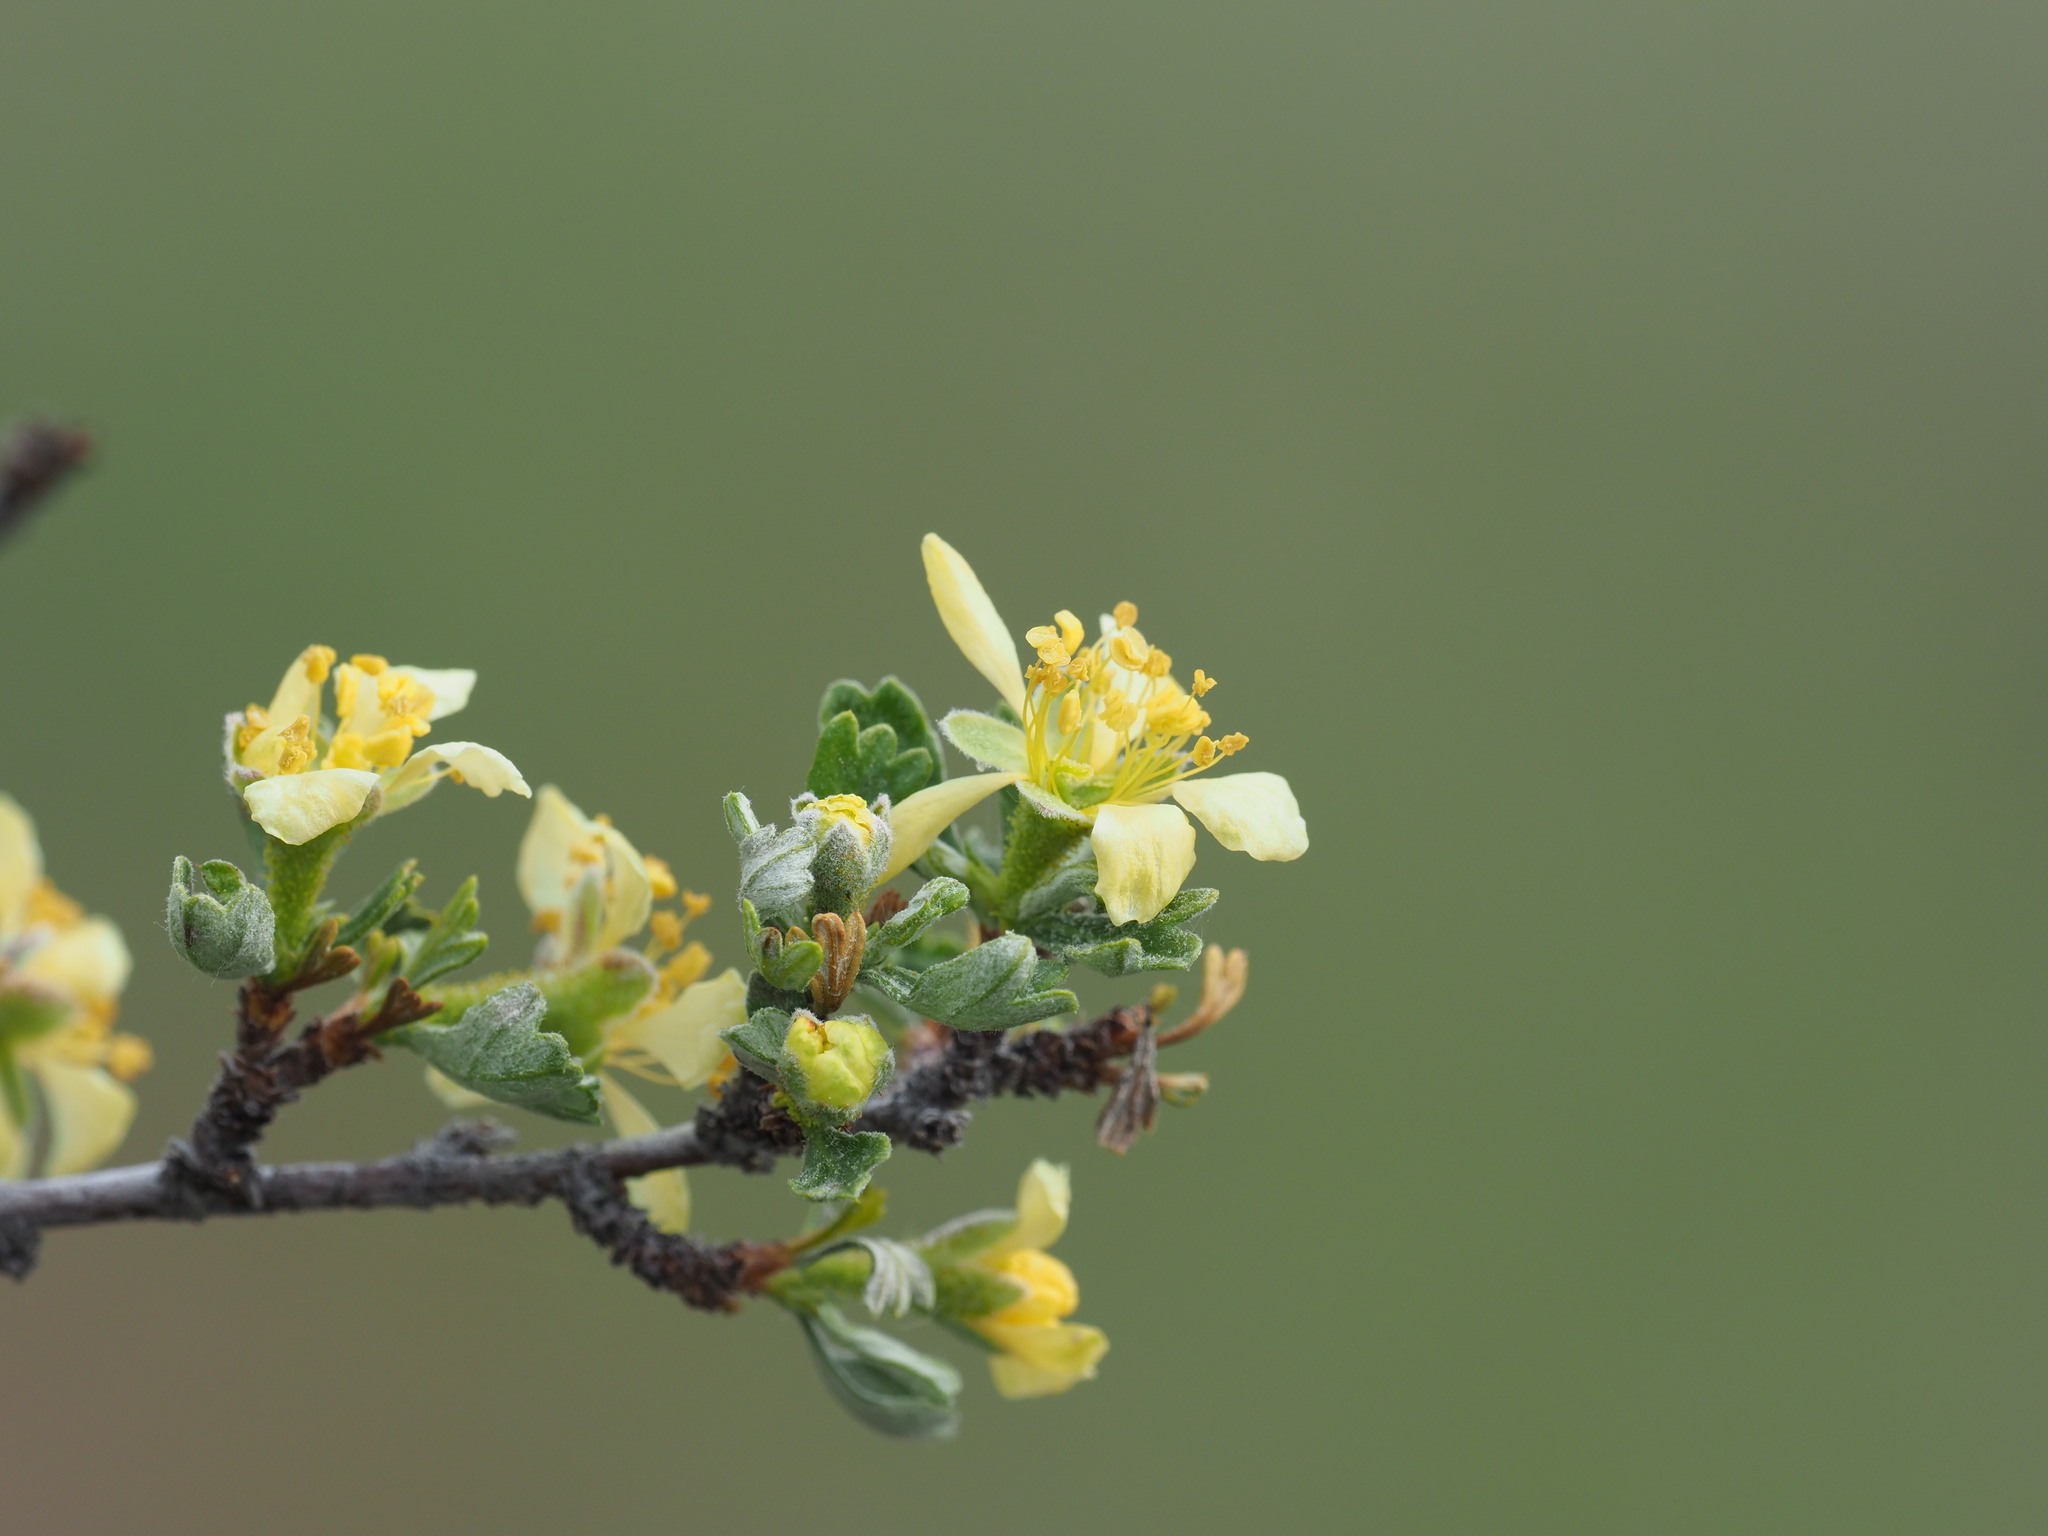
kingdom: Plantae
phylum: Tracheophyta
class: Magnoliopsida
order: Rosales
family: Rosaceae
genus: Purshia
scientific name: Purshia tridentata
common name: Antelope bitterbrush
